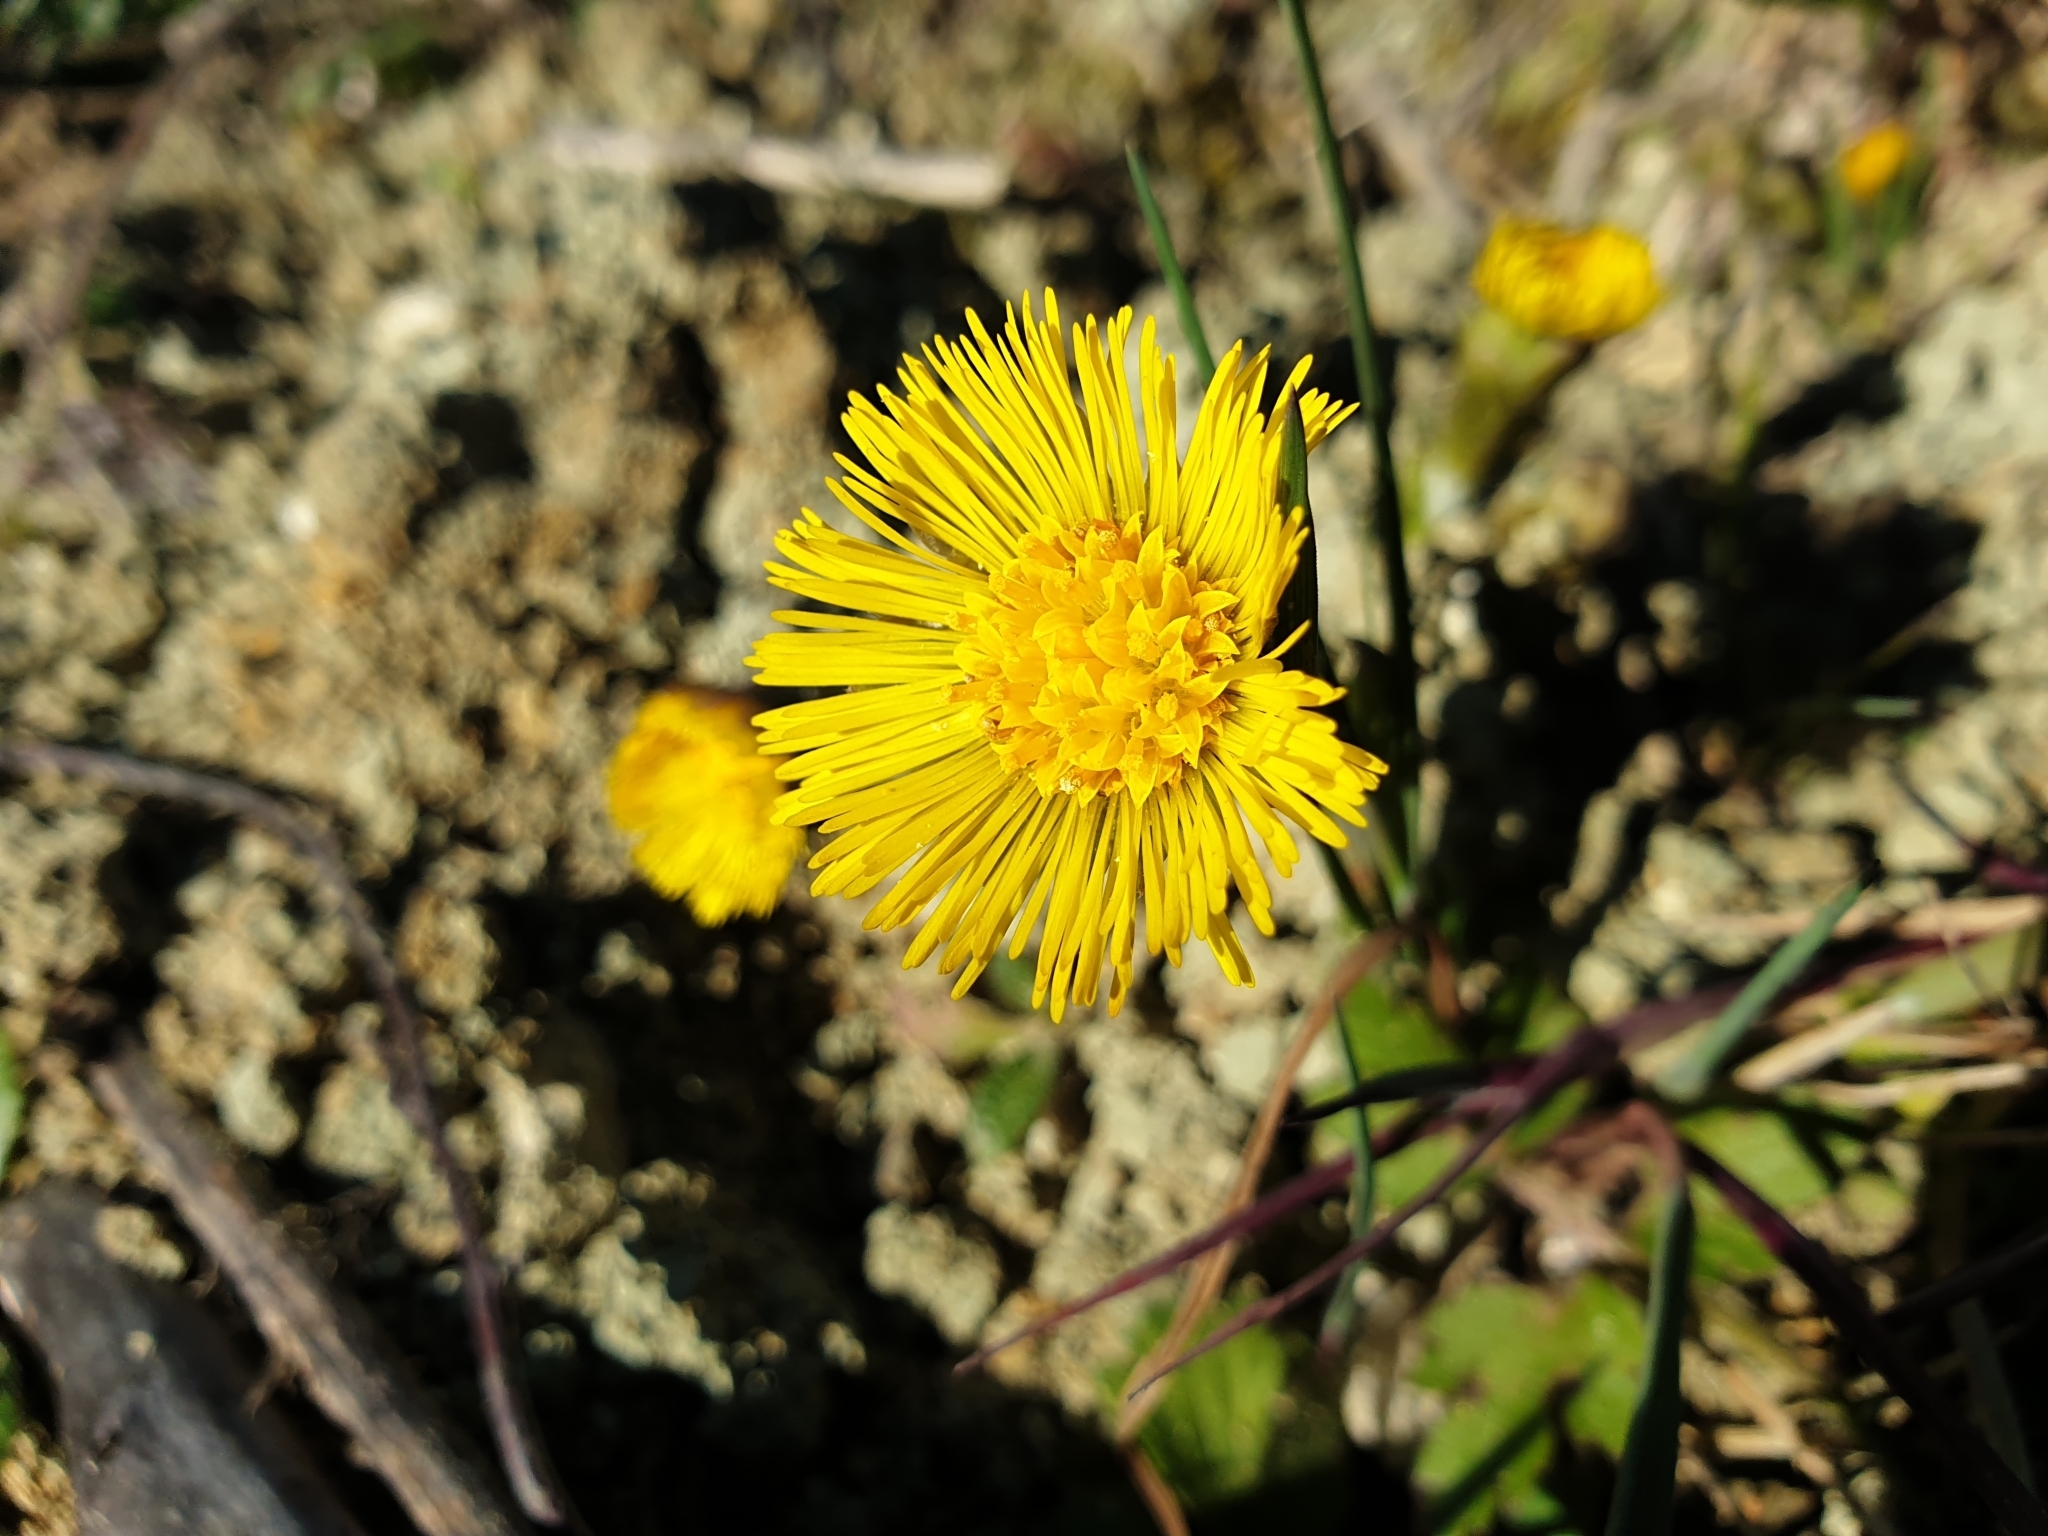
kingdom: Plantae
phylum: Tracheophyta
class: Magnoliopsida
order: Asterales
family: Asteraceae
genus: Tussilago
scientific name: Tussilago farfara
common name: Coltsfoot
